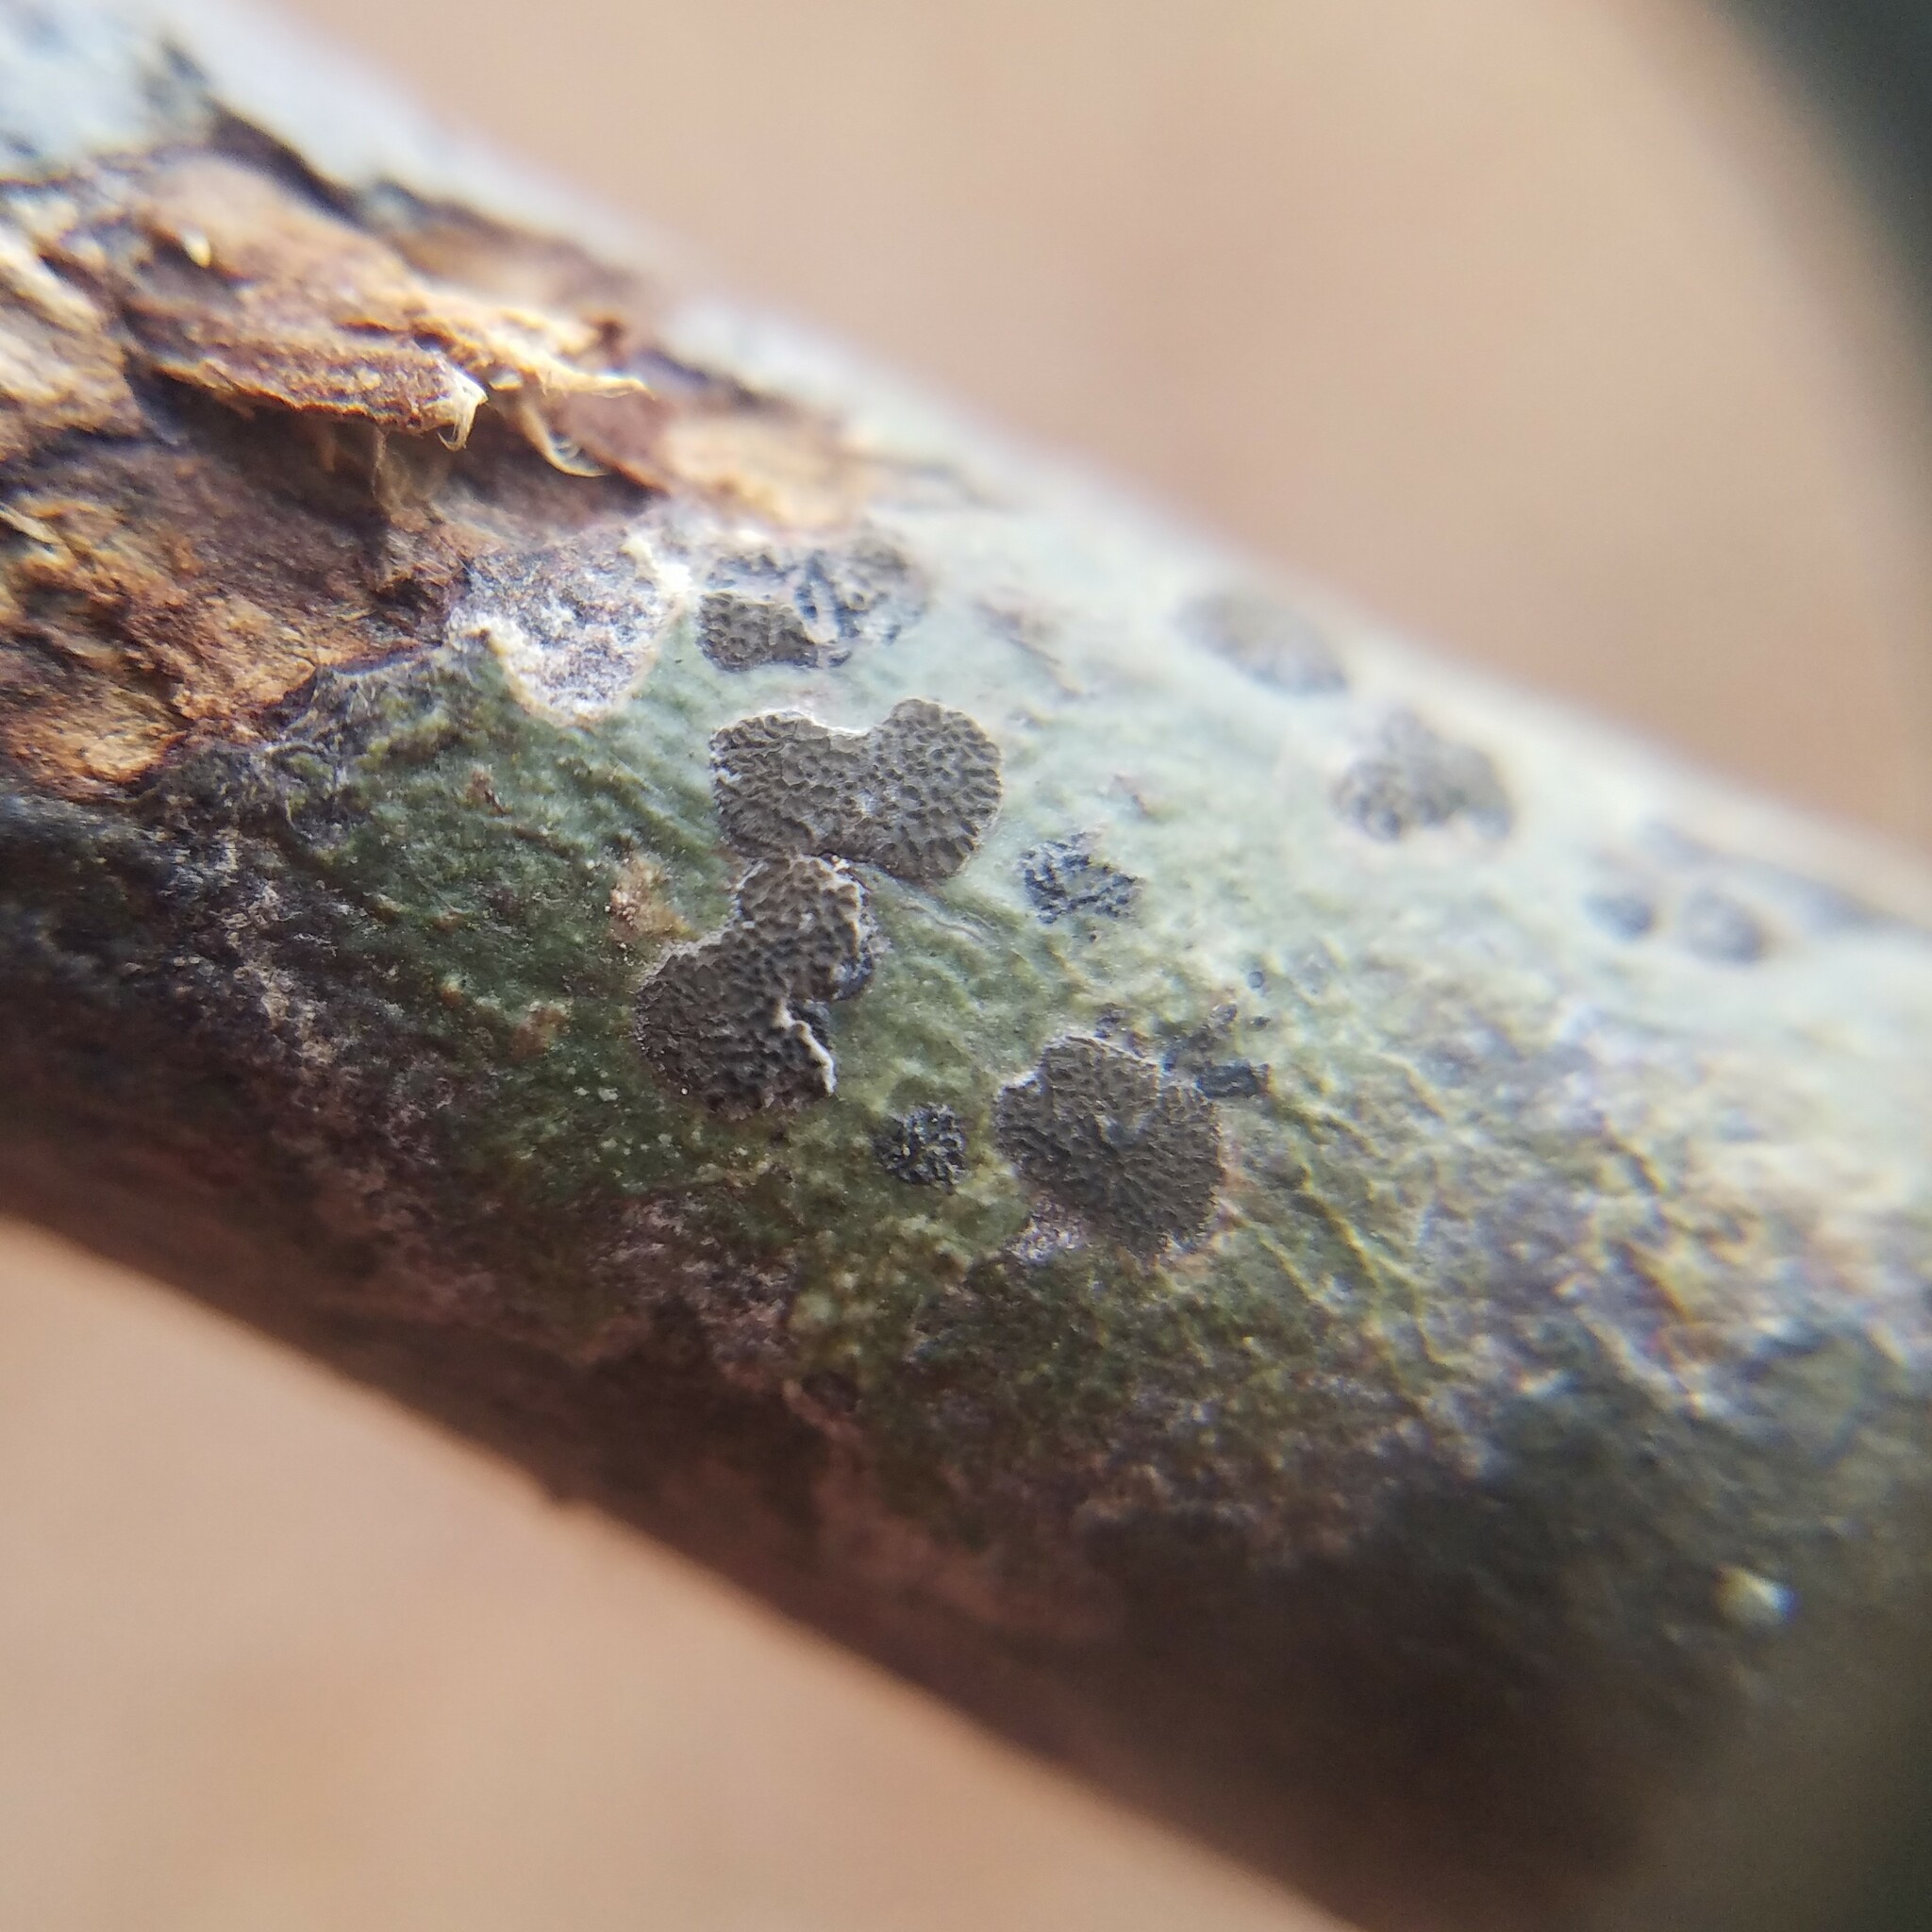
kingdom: Fungi
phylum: Ascomycota
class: Lecanoromycetes
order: Ostropales
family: Graphidaceae
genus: Glyphis
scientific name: Glyphis cicatricosa
